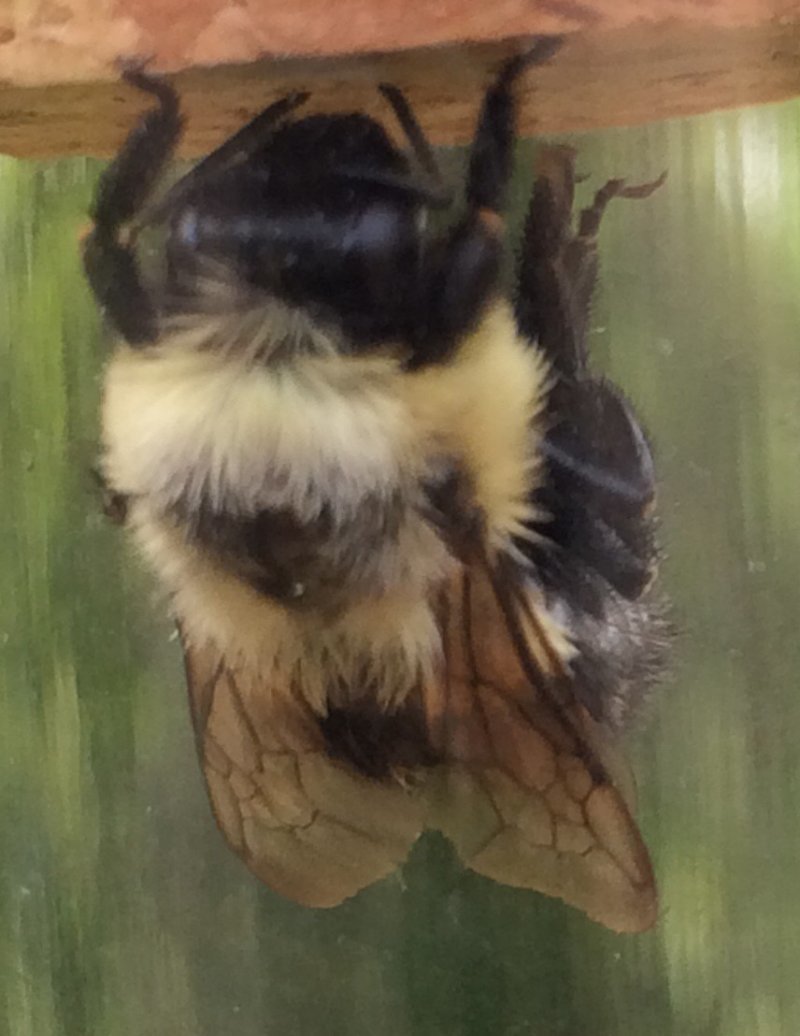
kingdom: Animalia
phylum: Arthropoda
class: Insecta
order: Hymenoptera
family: Apidae
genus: Bombus
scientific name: Bombus impatiens
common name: Common eastern bumble bee
